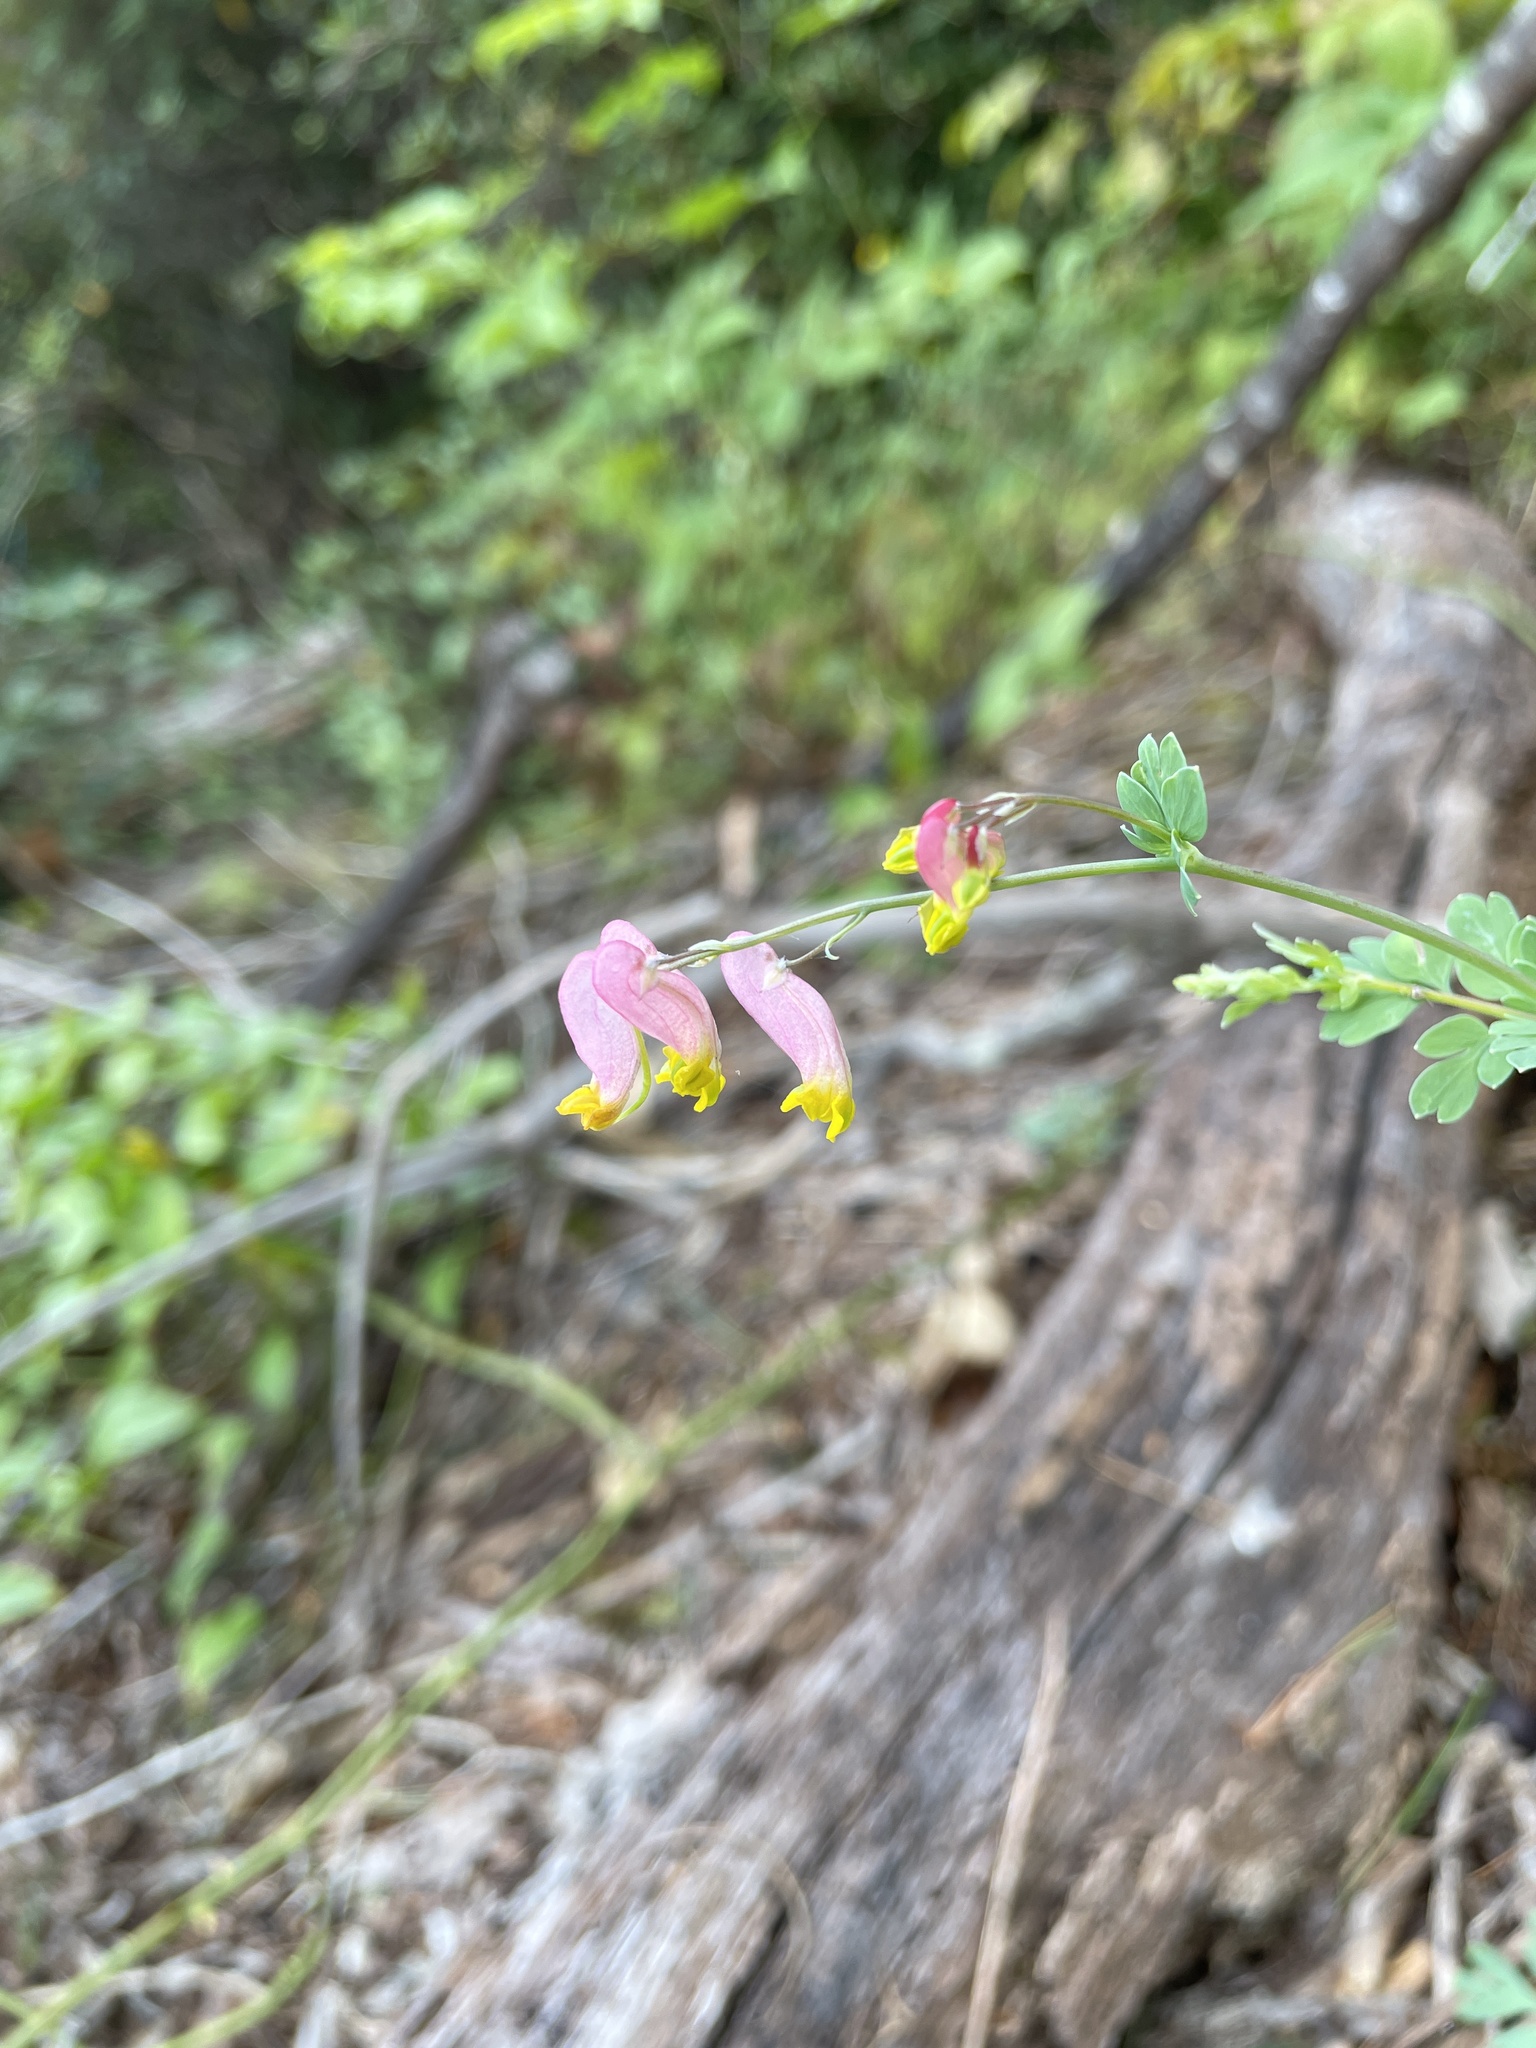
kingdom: Plantae
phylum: Tracheophyta
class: Magnoliopsida
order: Ranunculales
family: Papaveraceae
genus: Capnoides
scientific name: Capnoides sempervirens
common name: Rock harlequin
